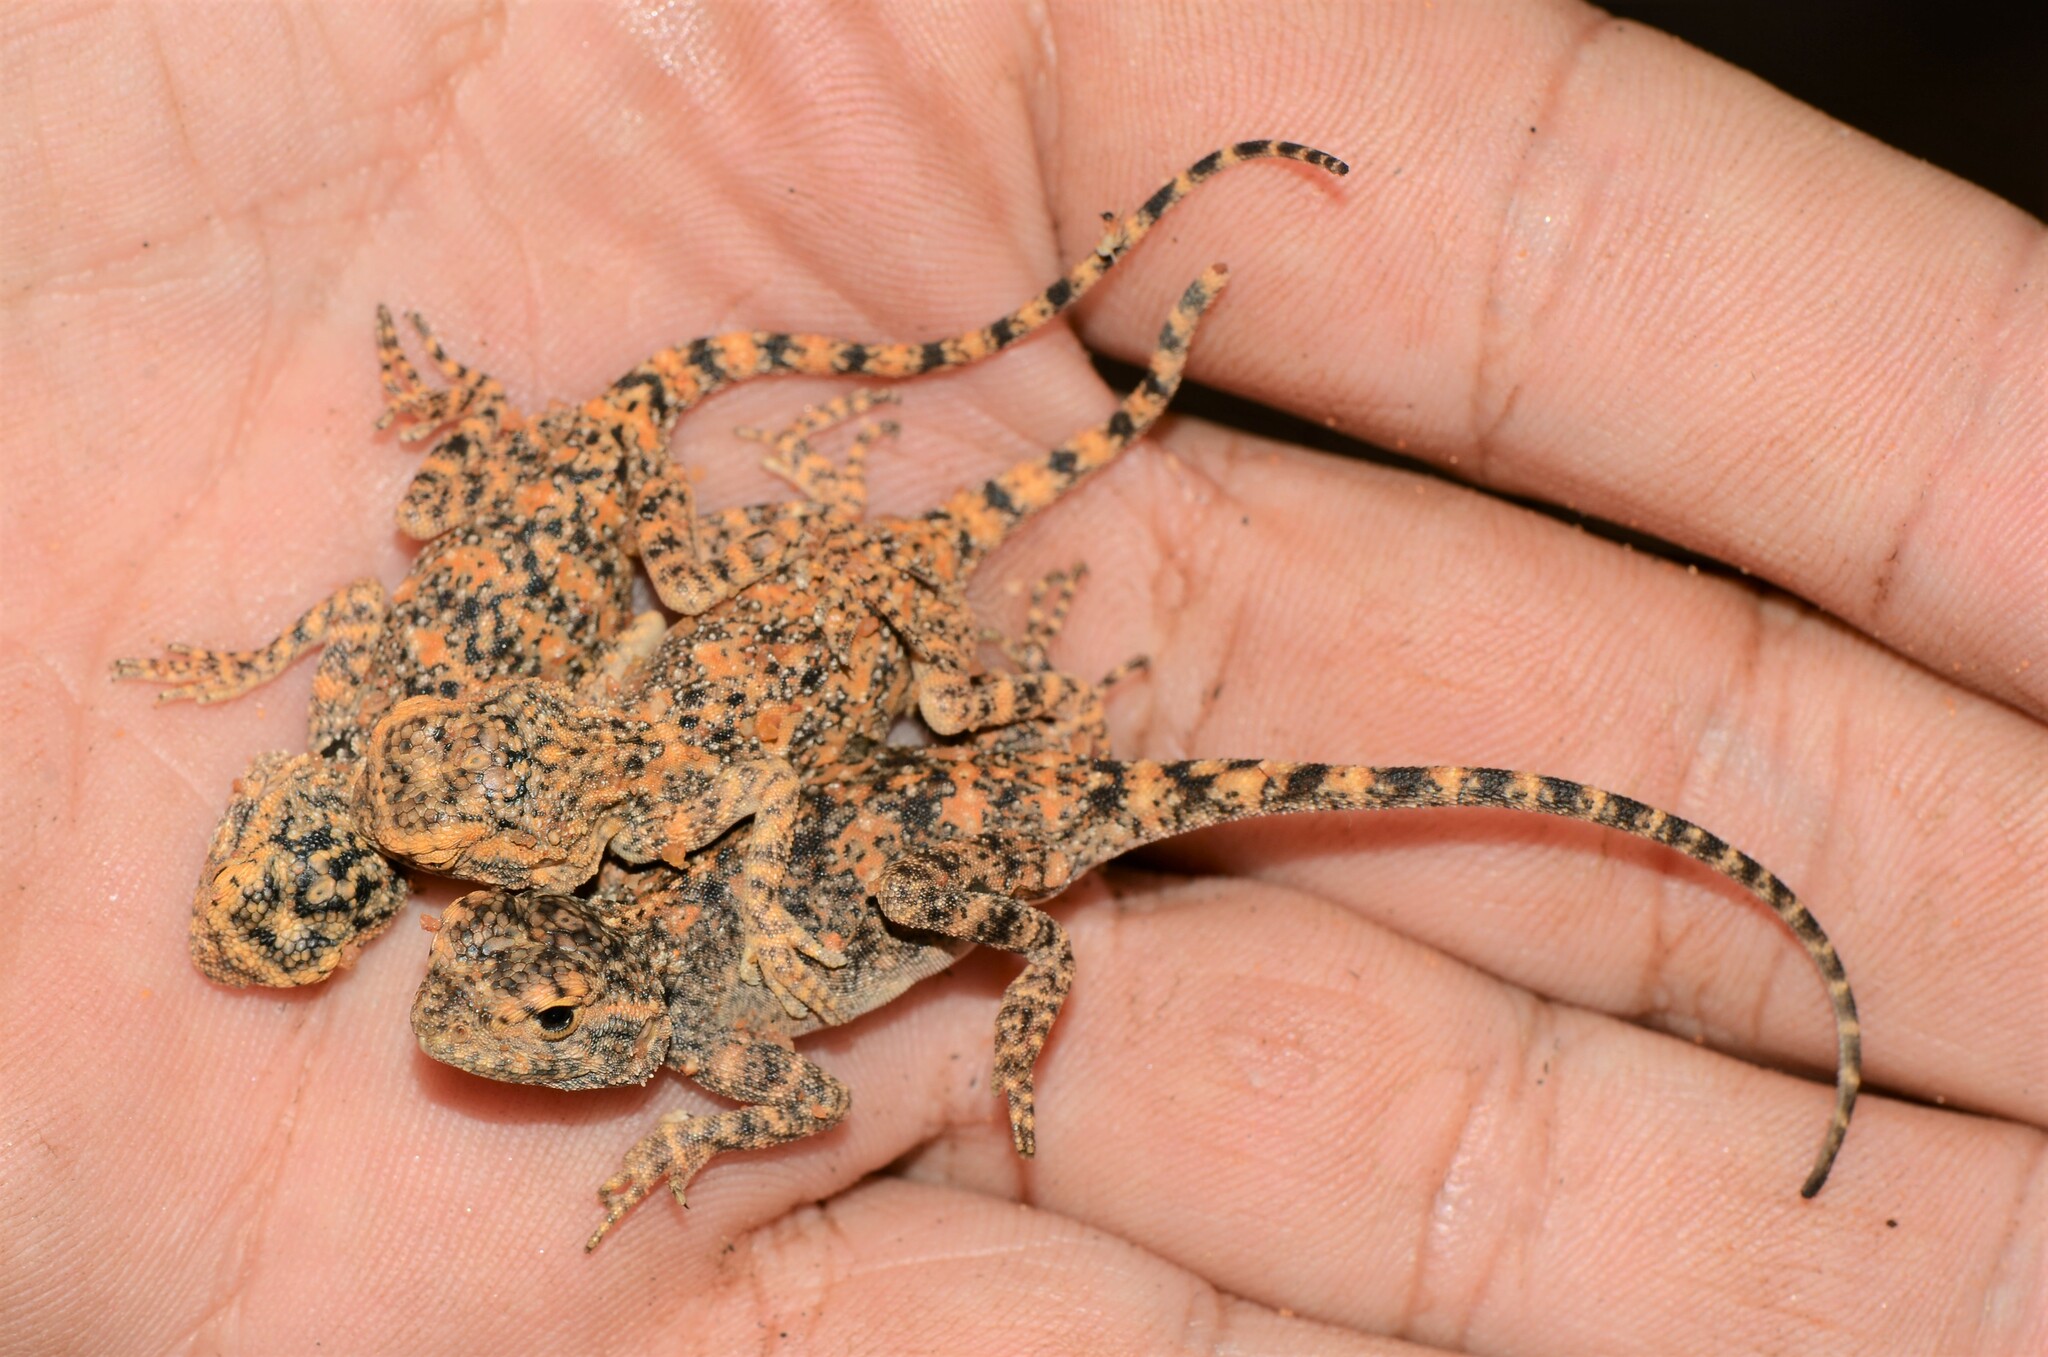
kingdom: Animalia
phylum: Chordata
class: Squamata
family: Agamidae
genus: Agama
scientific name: Agama atra
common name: Southern african rock agama
